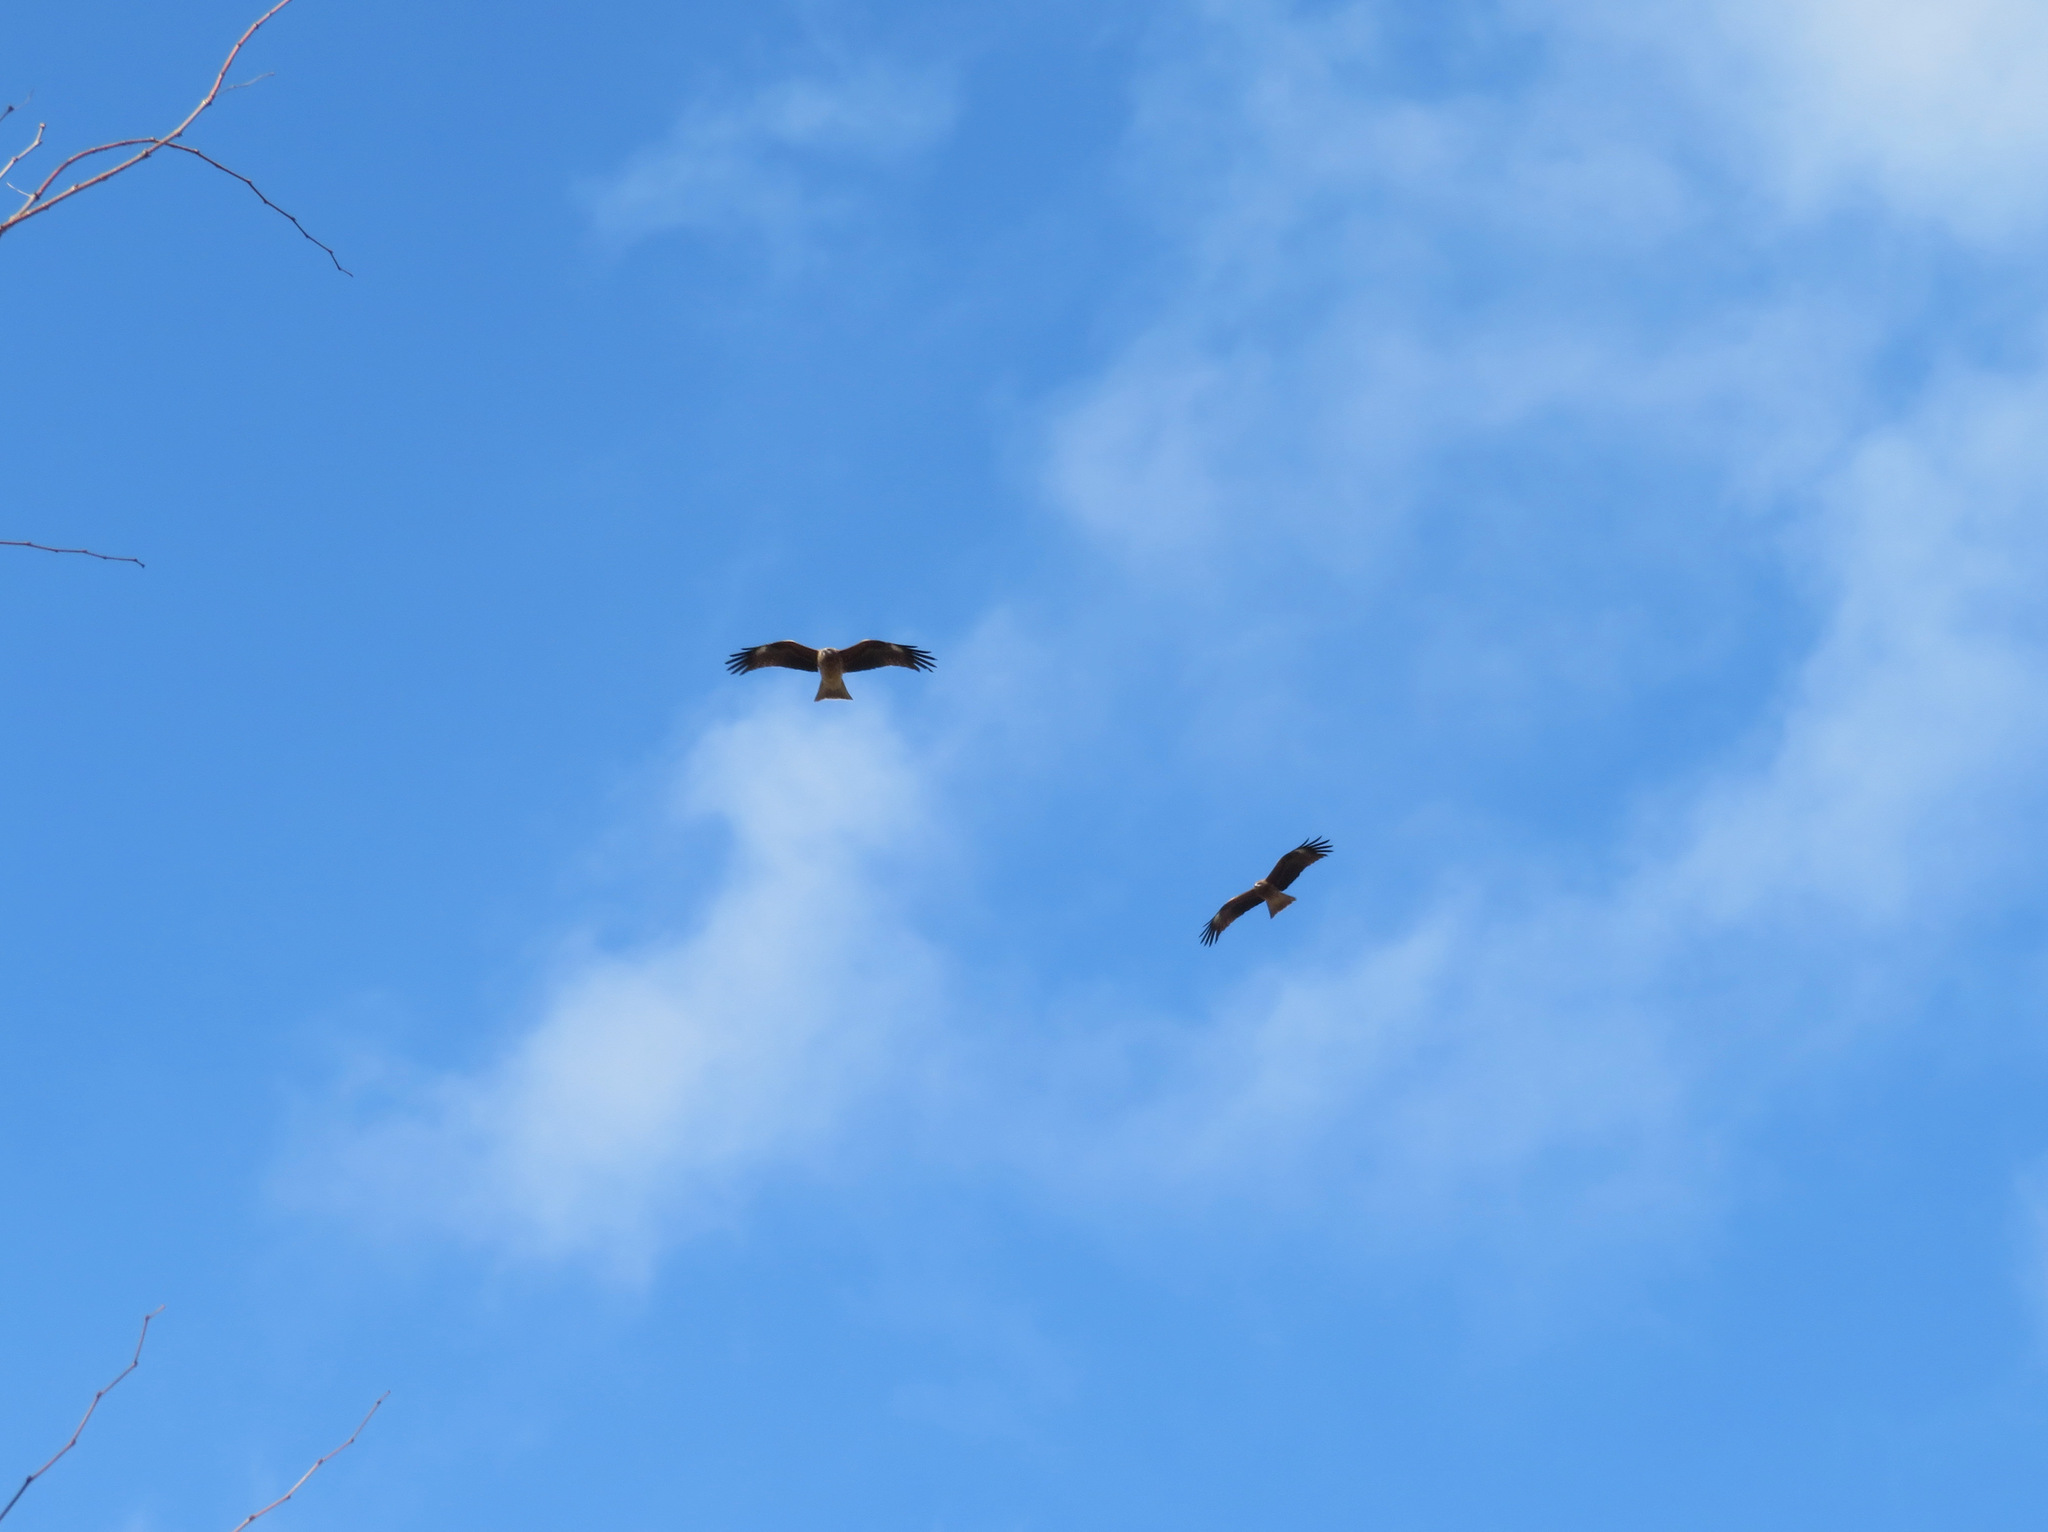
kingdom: Animalia
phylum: Chordata
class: Aves
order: Accipitriformes
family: Accipitridae
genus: Milvus
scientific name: Milvus migrans
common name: Black kite
